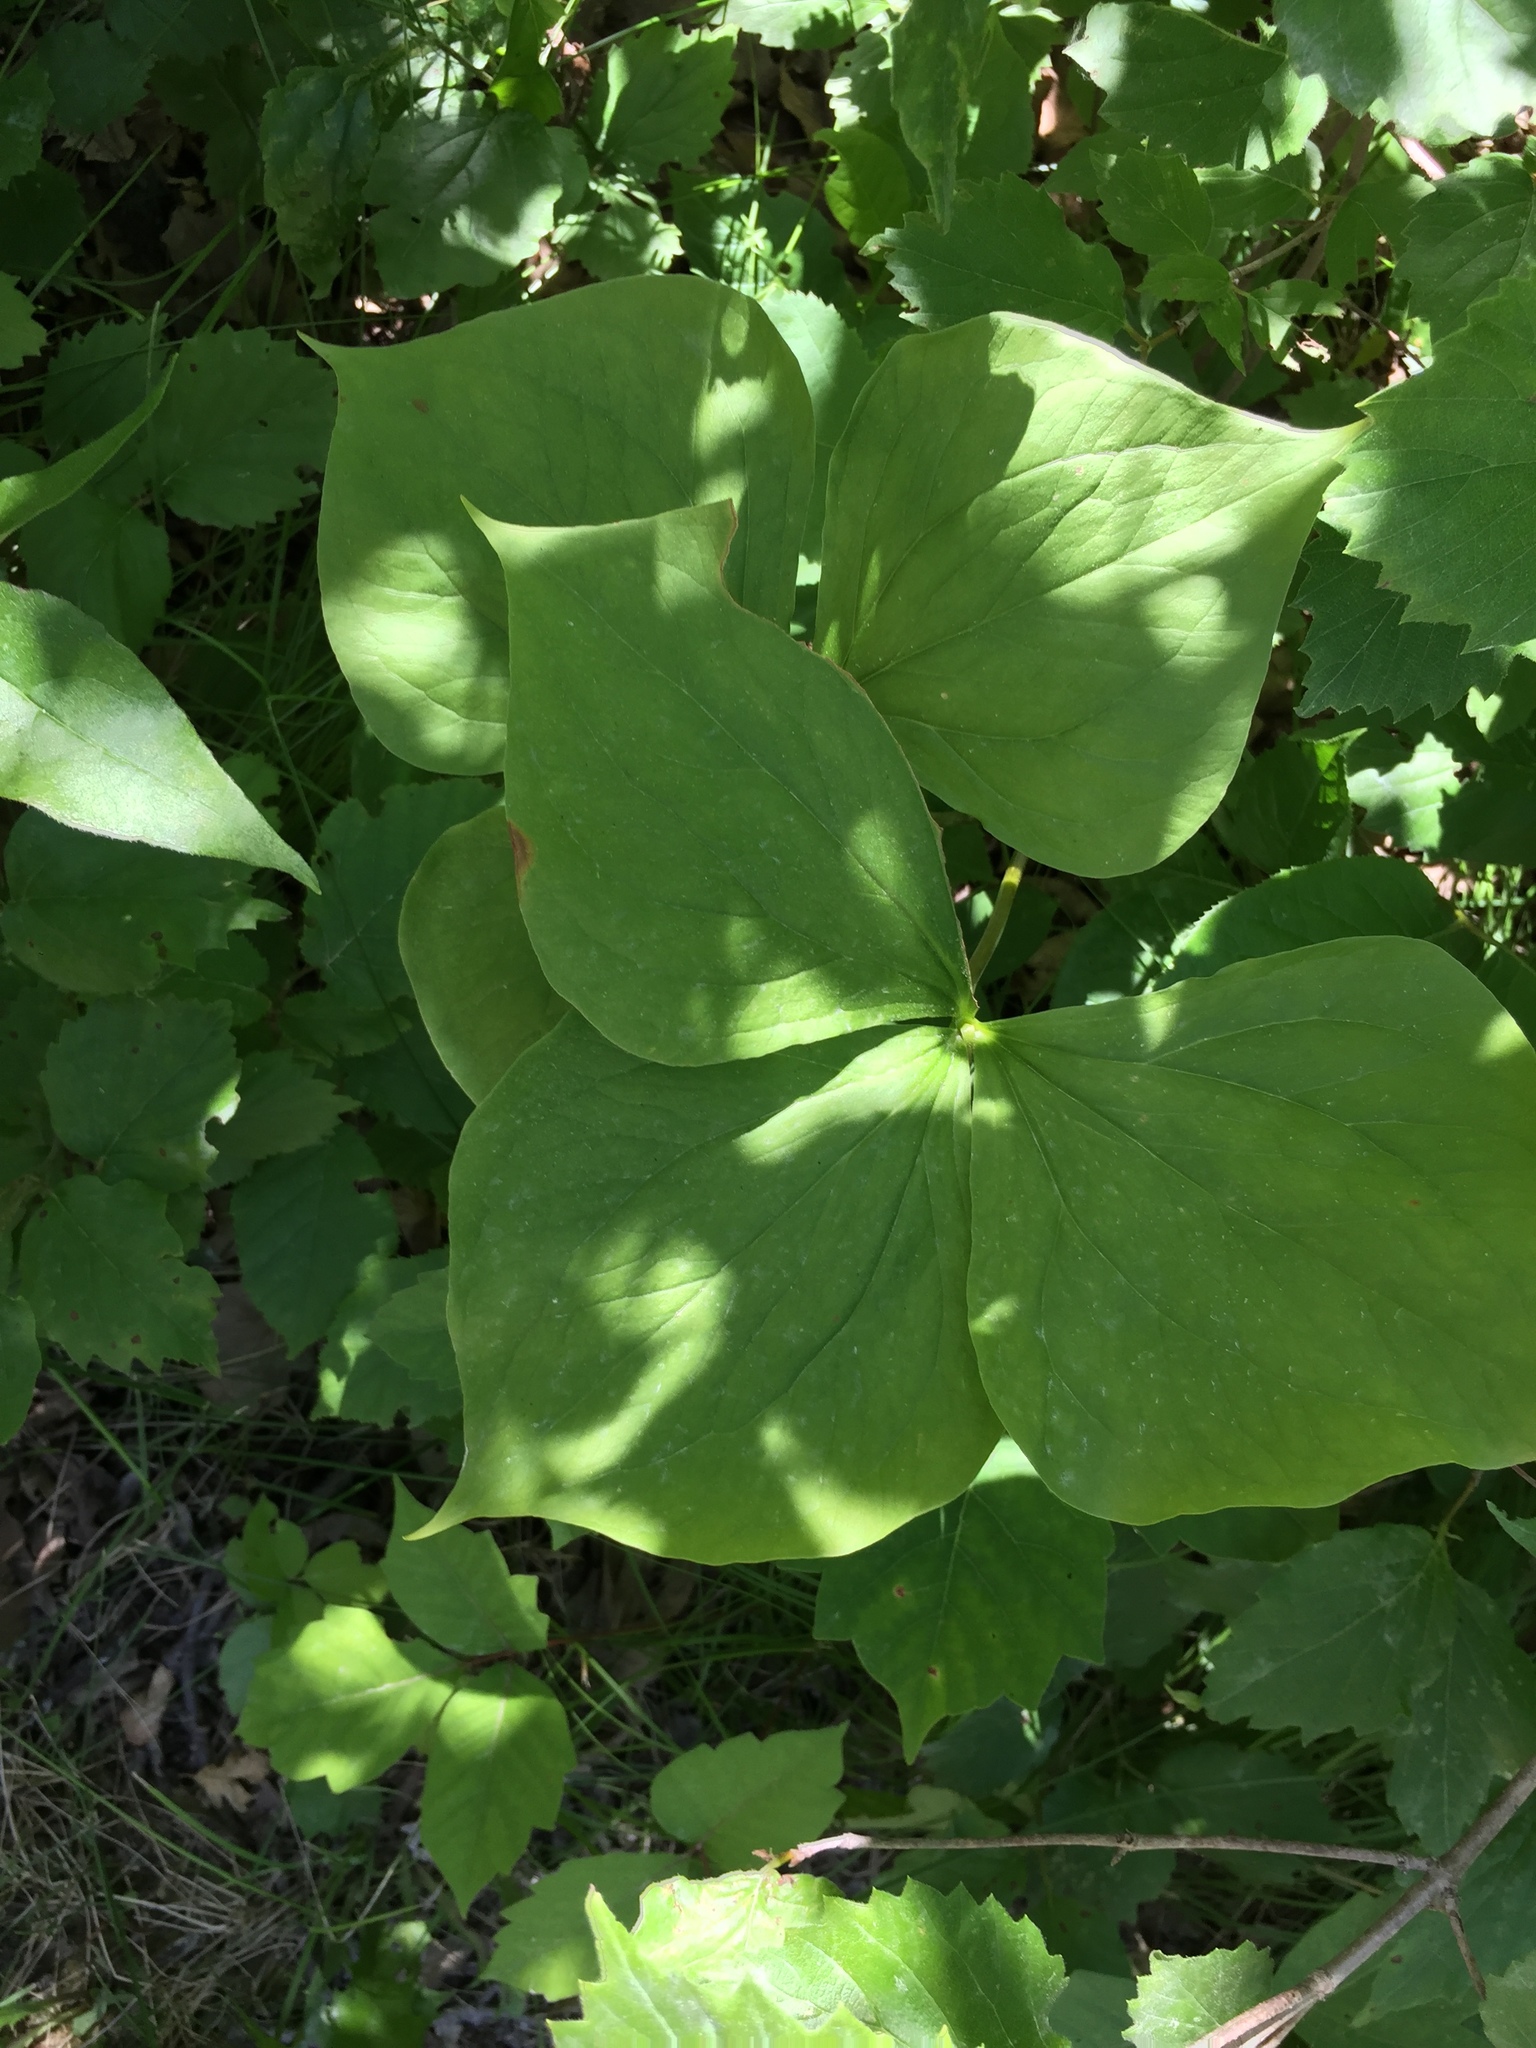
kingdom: Plantae
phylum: Tracheophyta
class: Liliopsida
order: Liliales
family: Melanthiaceae
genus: Trillium
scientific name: Trillium cernuum
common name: Nodding trillium
